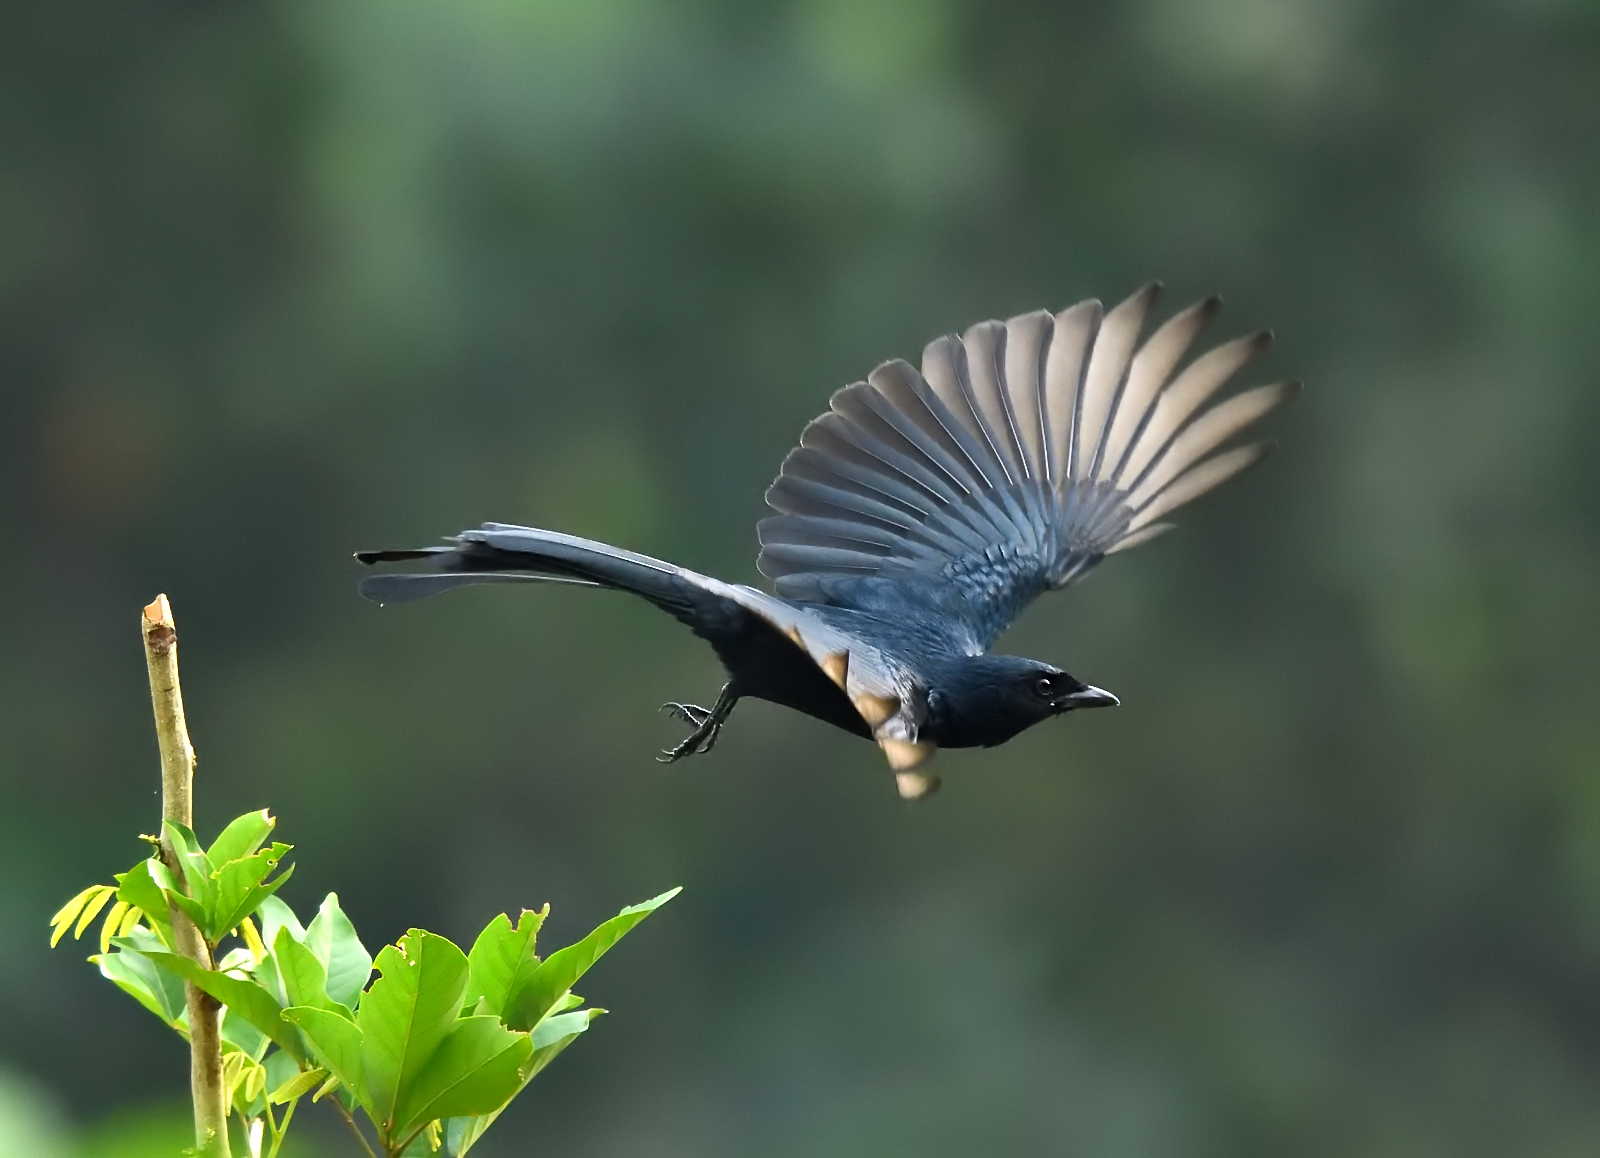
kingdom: Animalia
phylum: Chordata
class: Aves
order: Passeriformes
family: Dicruridae
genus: Dicrurus
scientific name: Dicrurus macrocercus
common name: Black drongo
